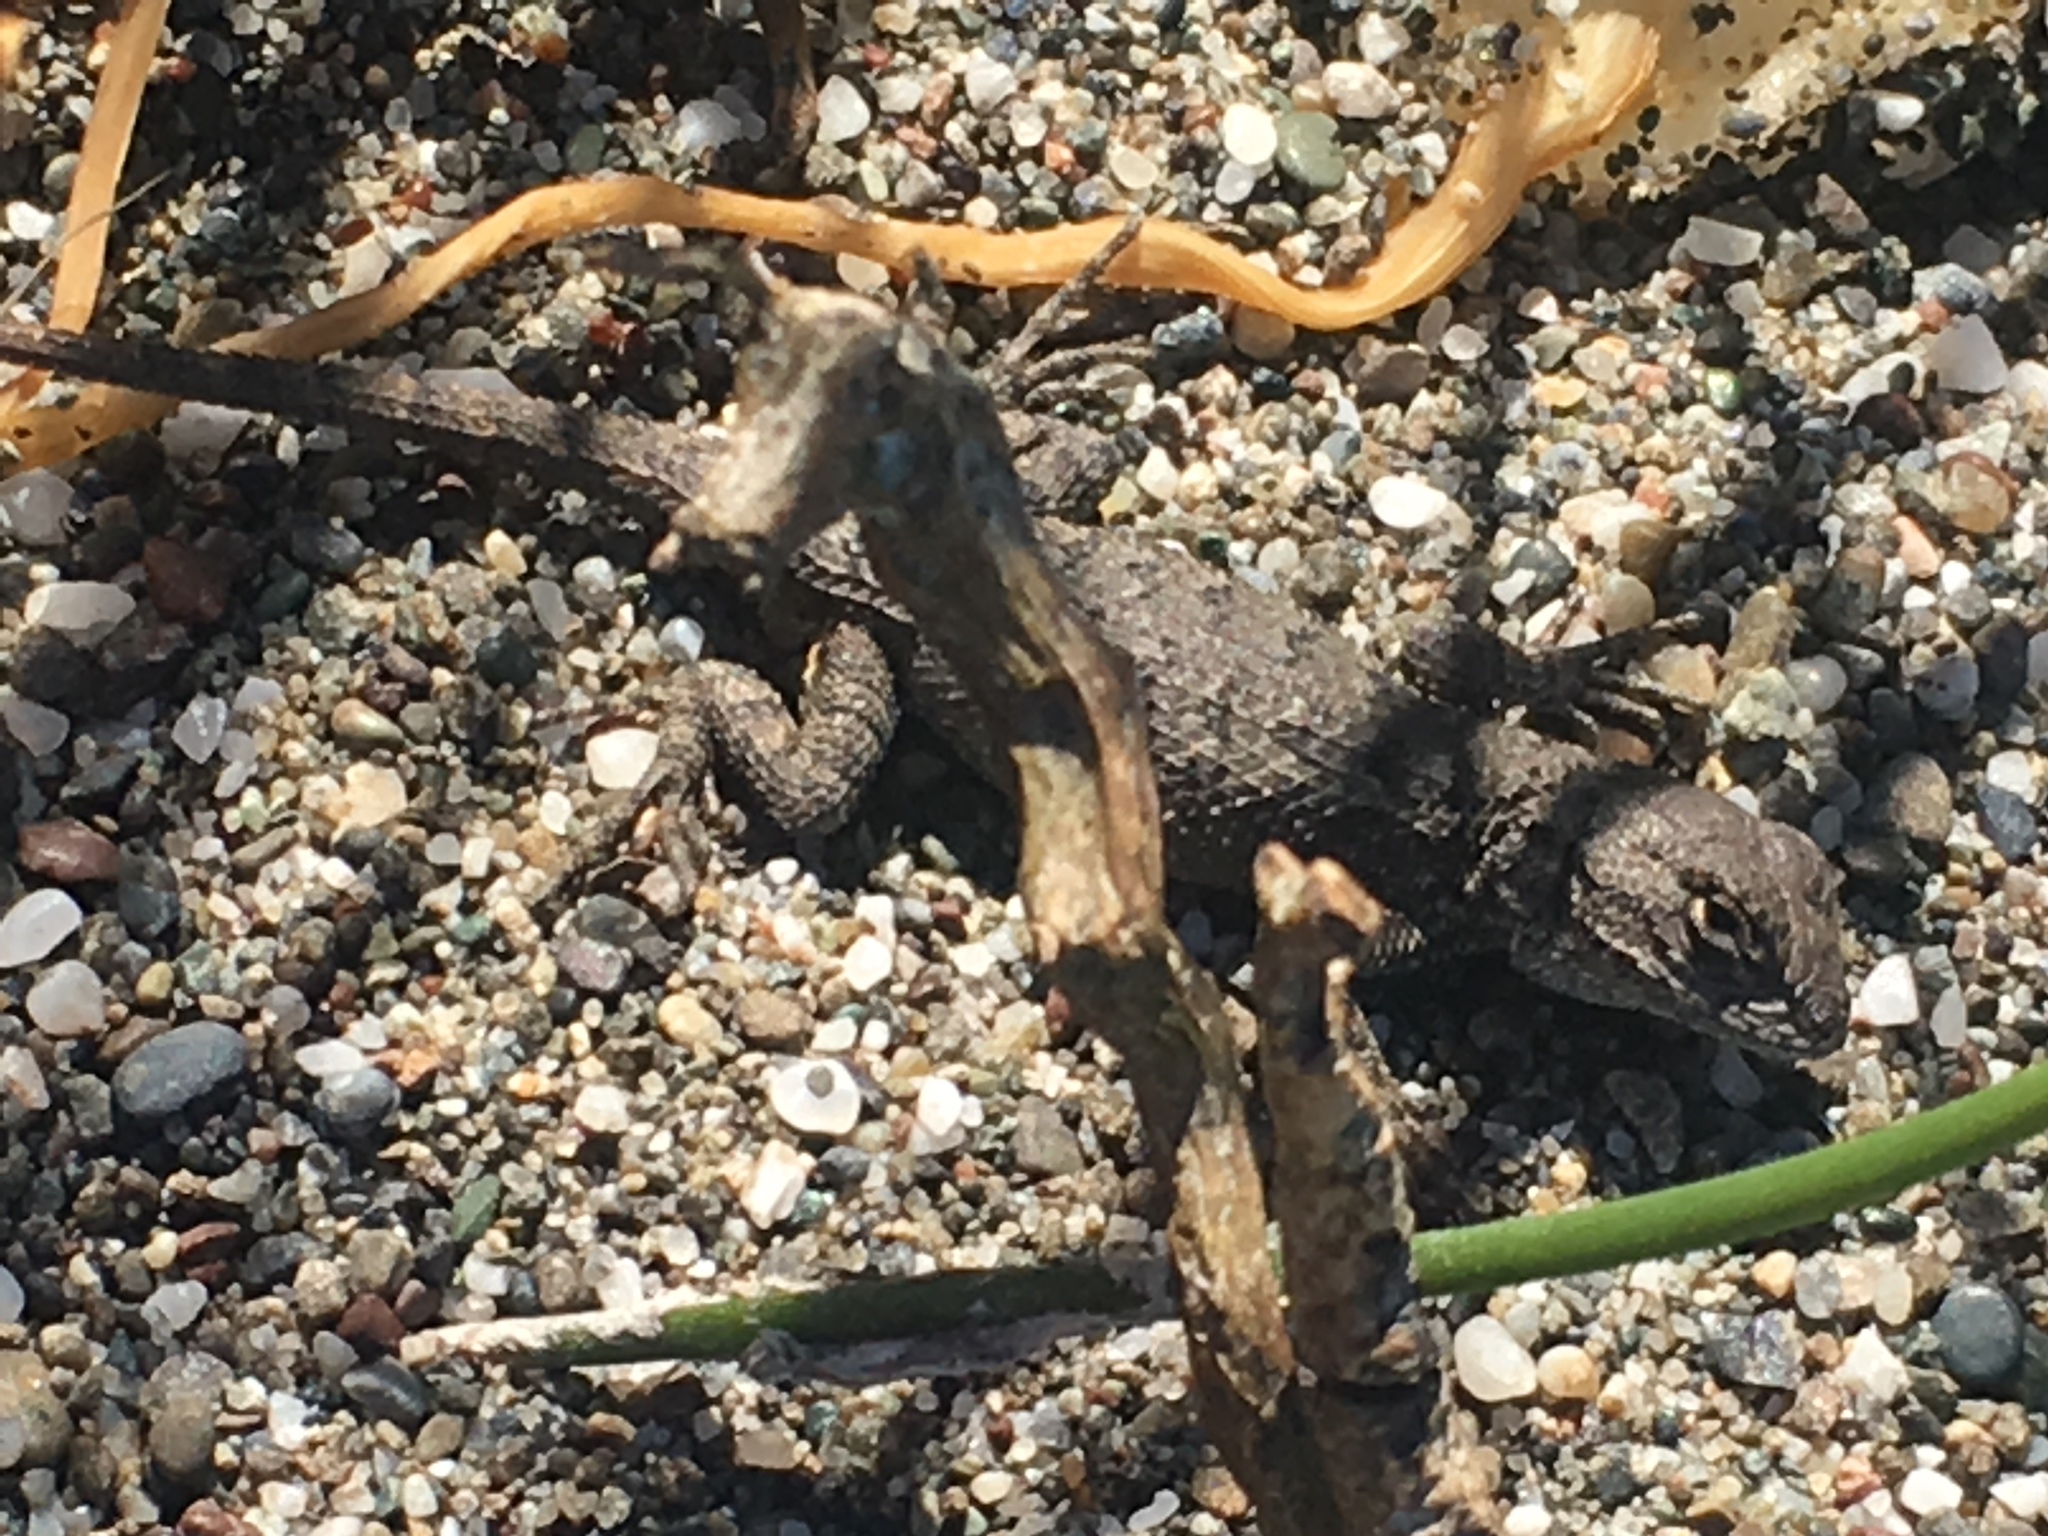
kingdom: Animalia
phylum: Chordata
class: Squamata
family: Phrynosomatidae
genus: Sceloporus
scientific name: Sceloporus occidentalis
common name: Western fence lizard
